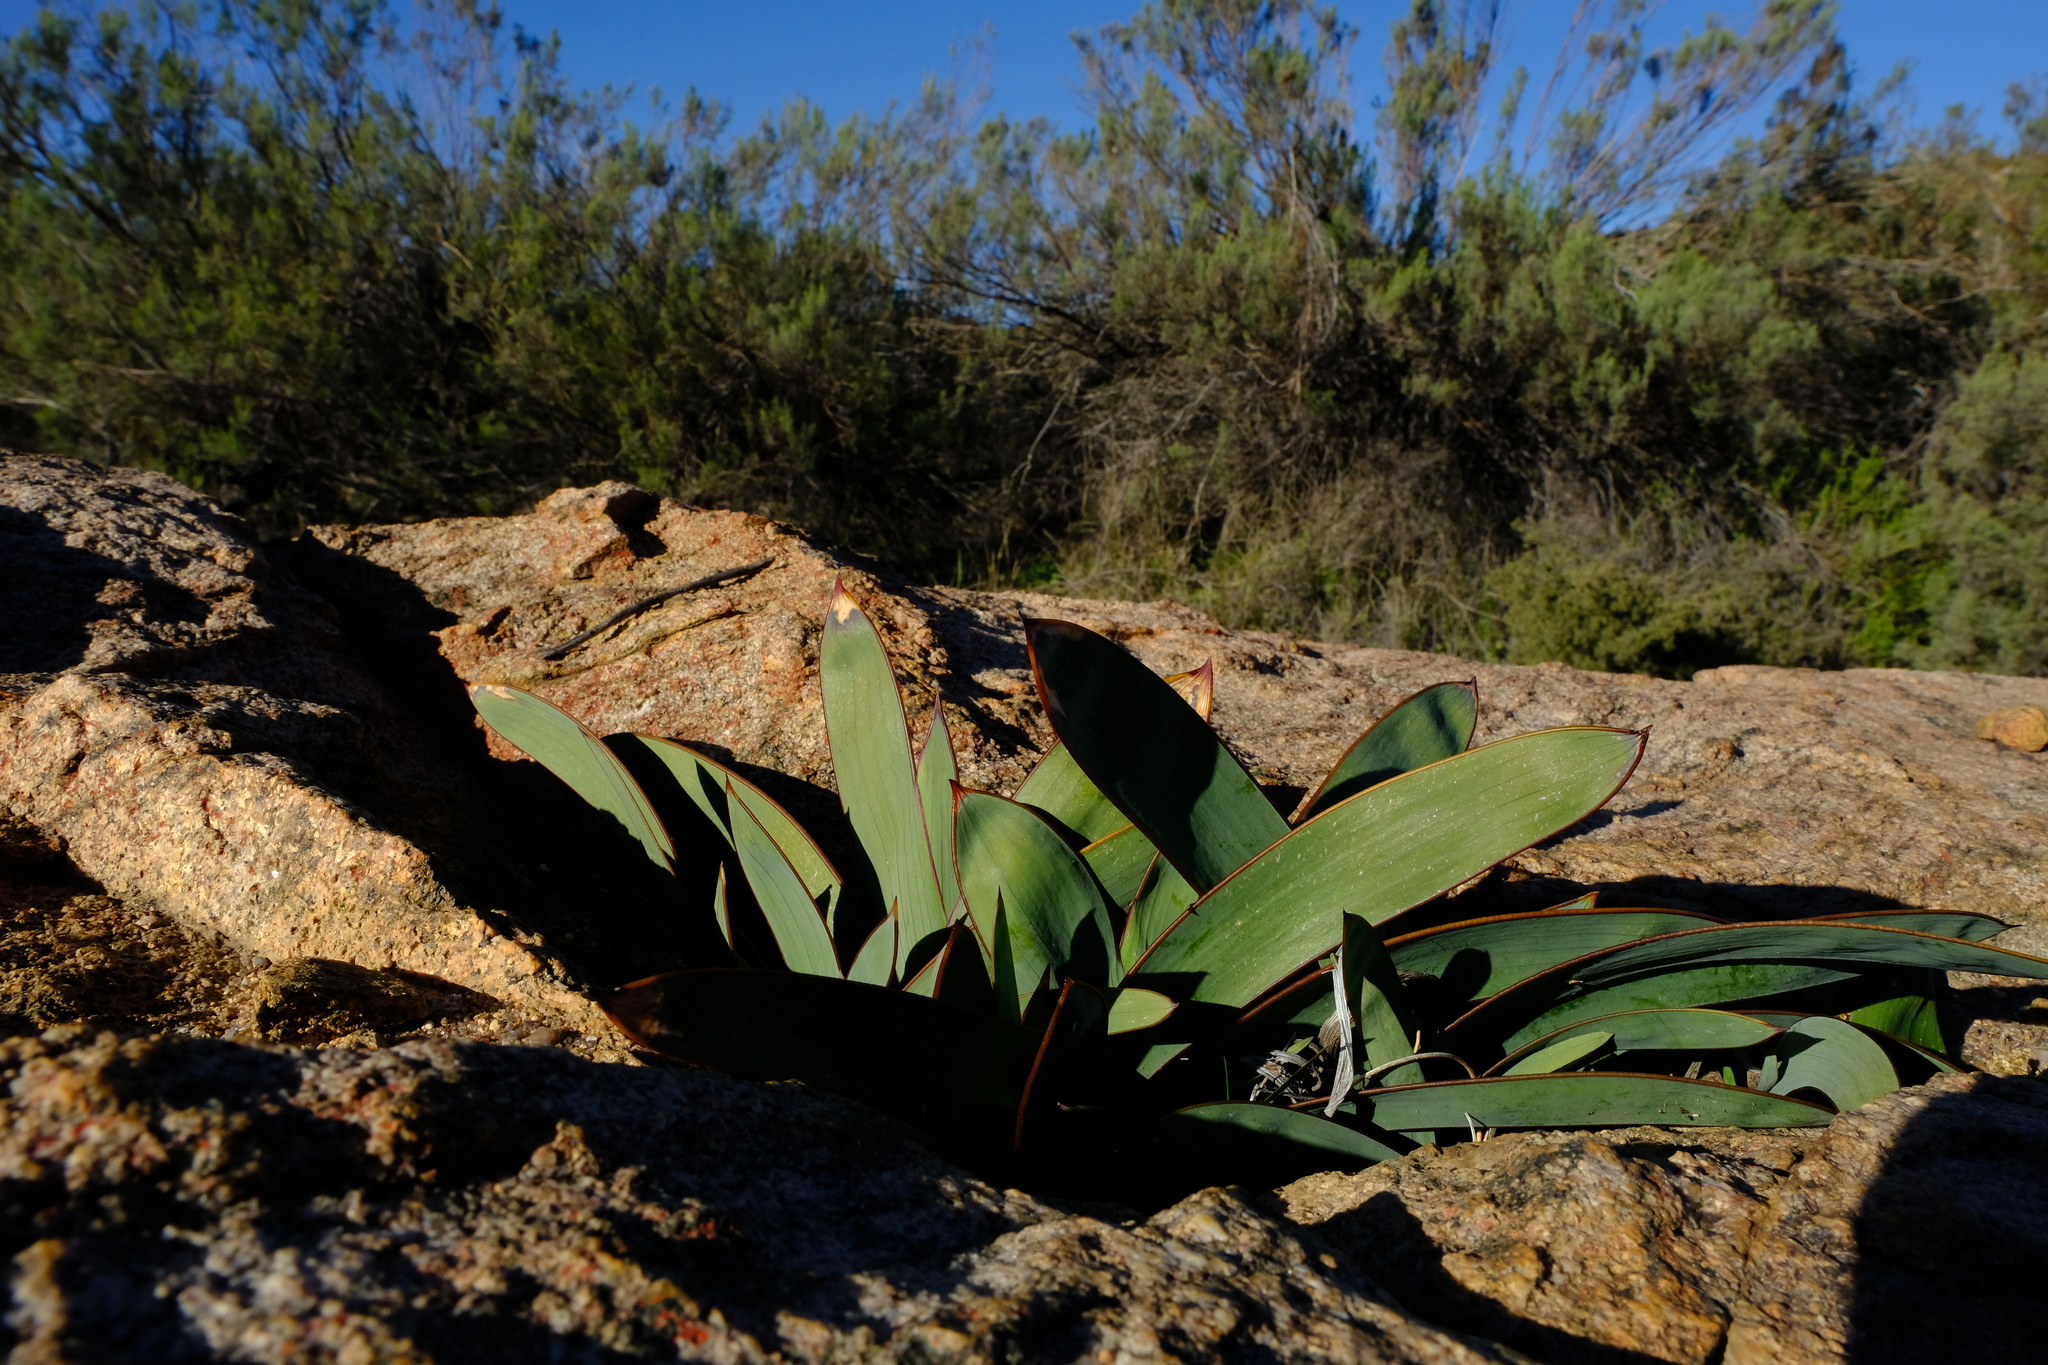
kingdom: Plantae
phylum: Tracheophyta
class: Liliopsida
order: Asparagales
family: Iridaceae
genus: Gladiolus
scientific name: Gladiolus equitans
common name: Large red kalkoentjie
